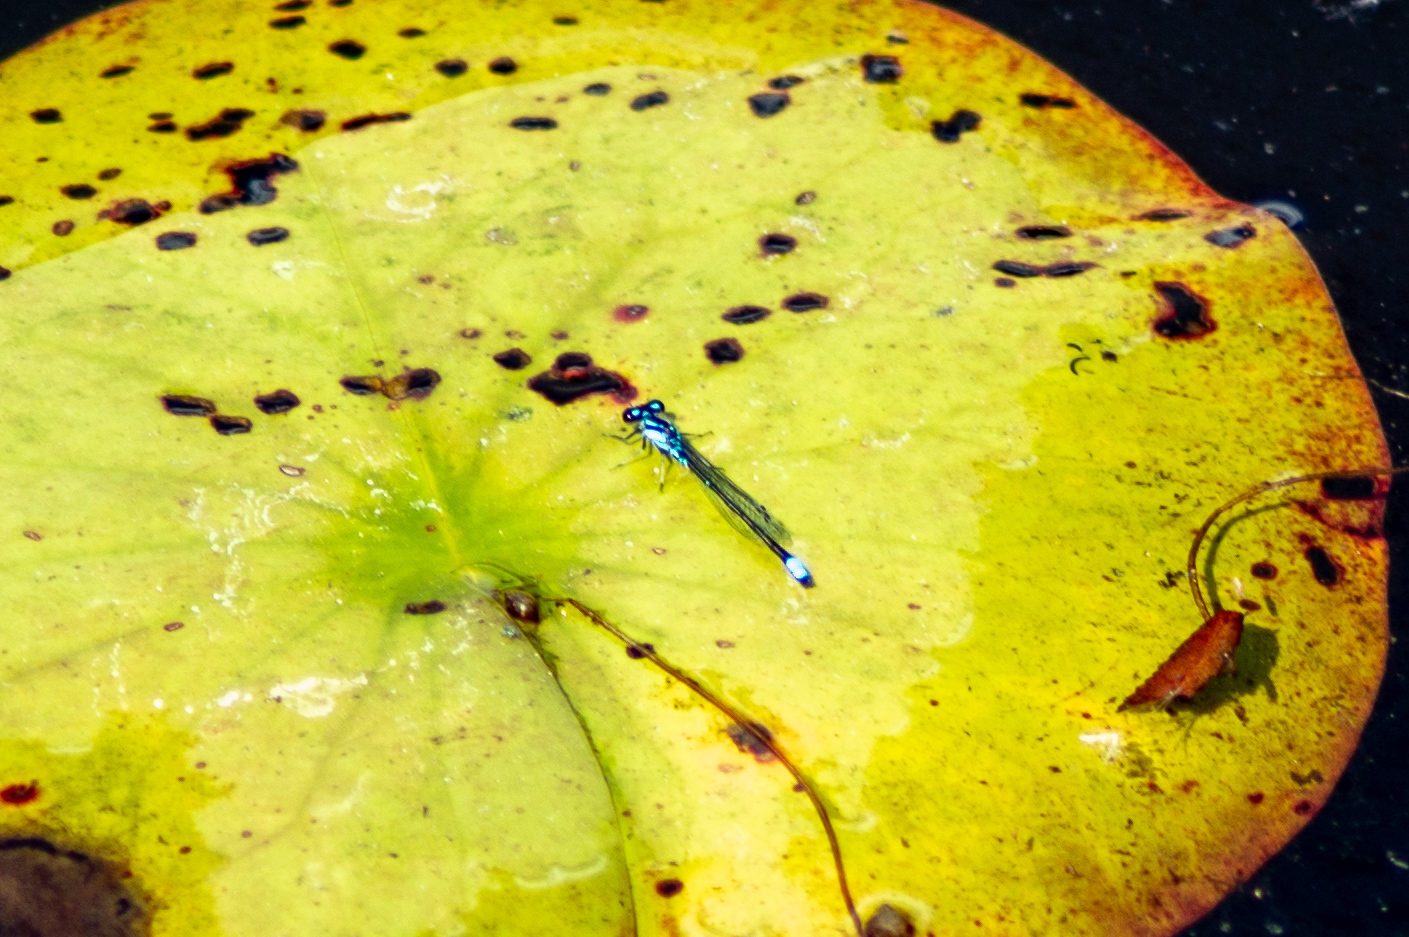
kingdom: Animalia
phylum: Arthropoda
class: Insecta
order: Odonata
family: Coenagrionidae
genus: Enallagma
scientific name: Enallagma geminatum
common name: Skimming bluet
